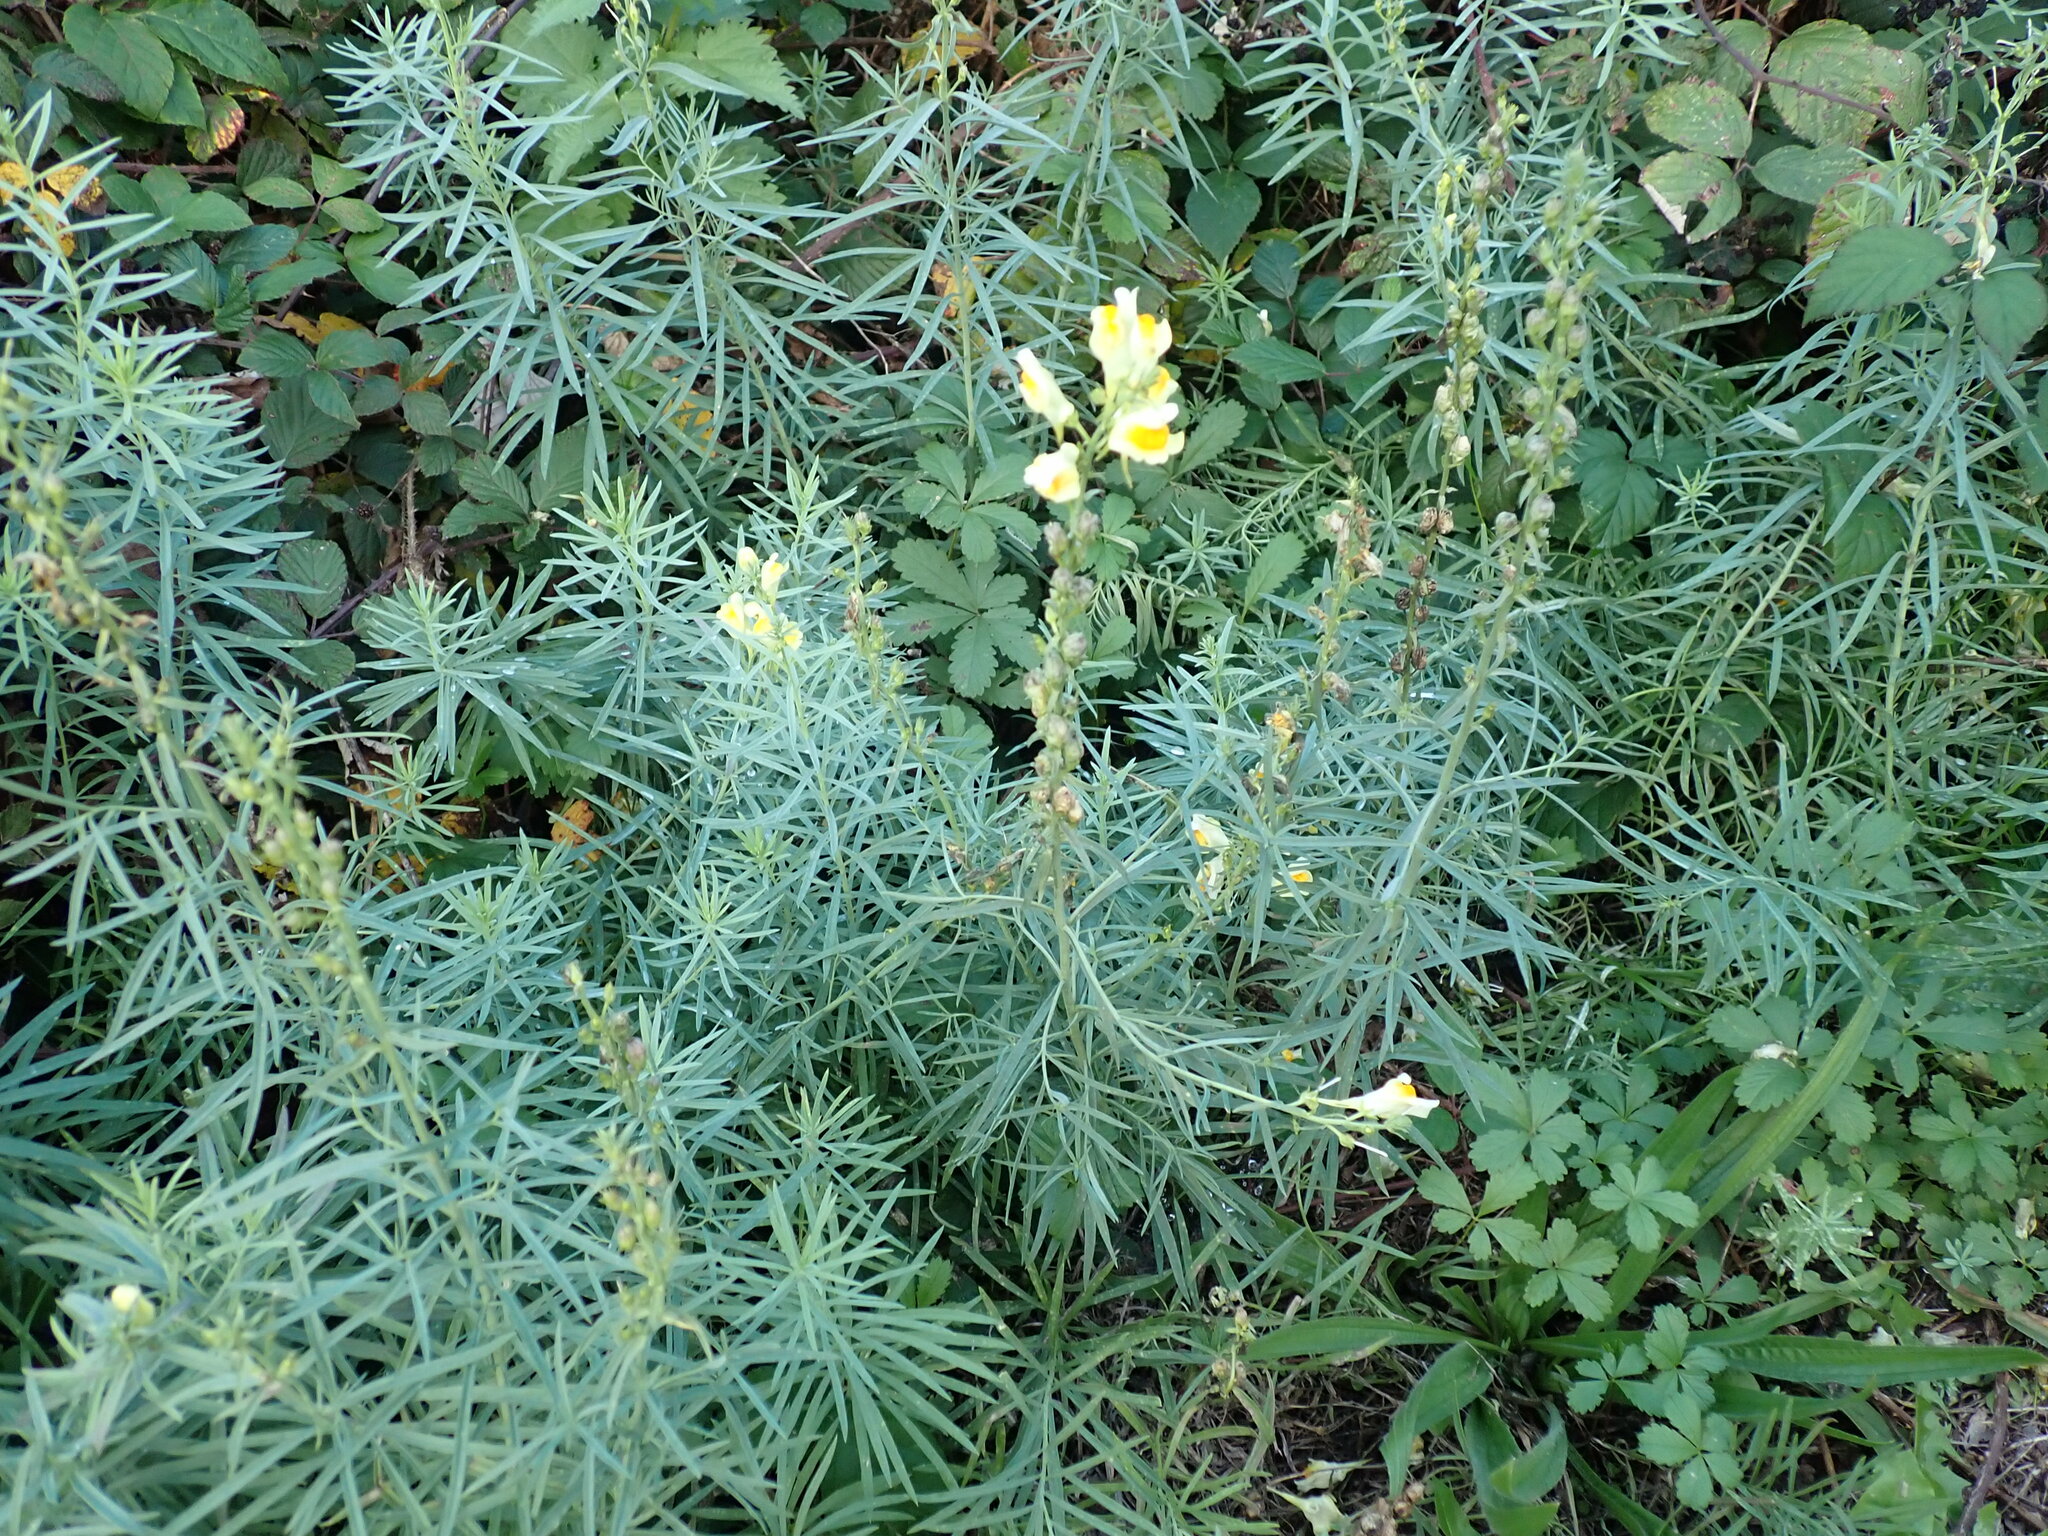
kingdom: Plantae
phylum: Tracheophyta
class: Magnoliopsida
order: Lamiales
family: Plantaginaceae
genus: Linaria
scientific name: Linaria vulgaris
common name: Butter and eggs
